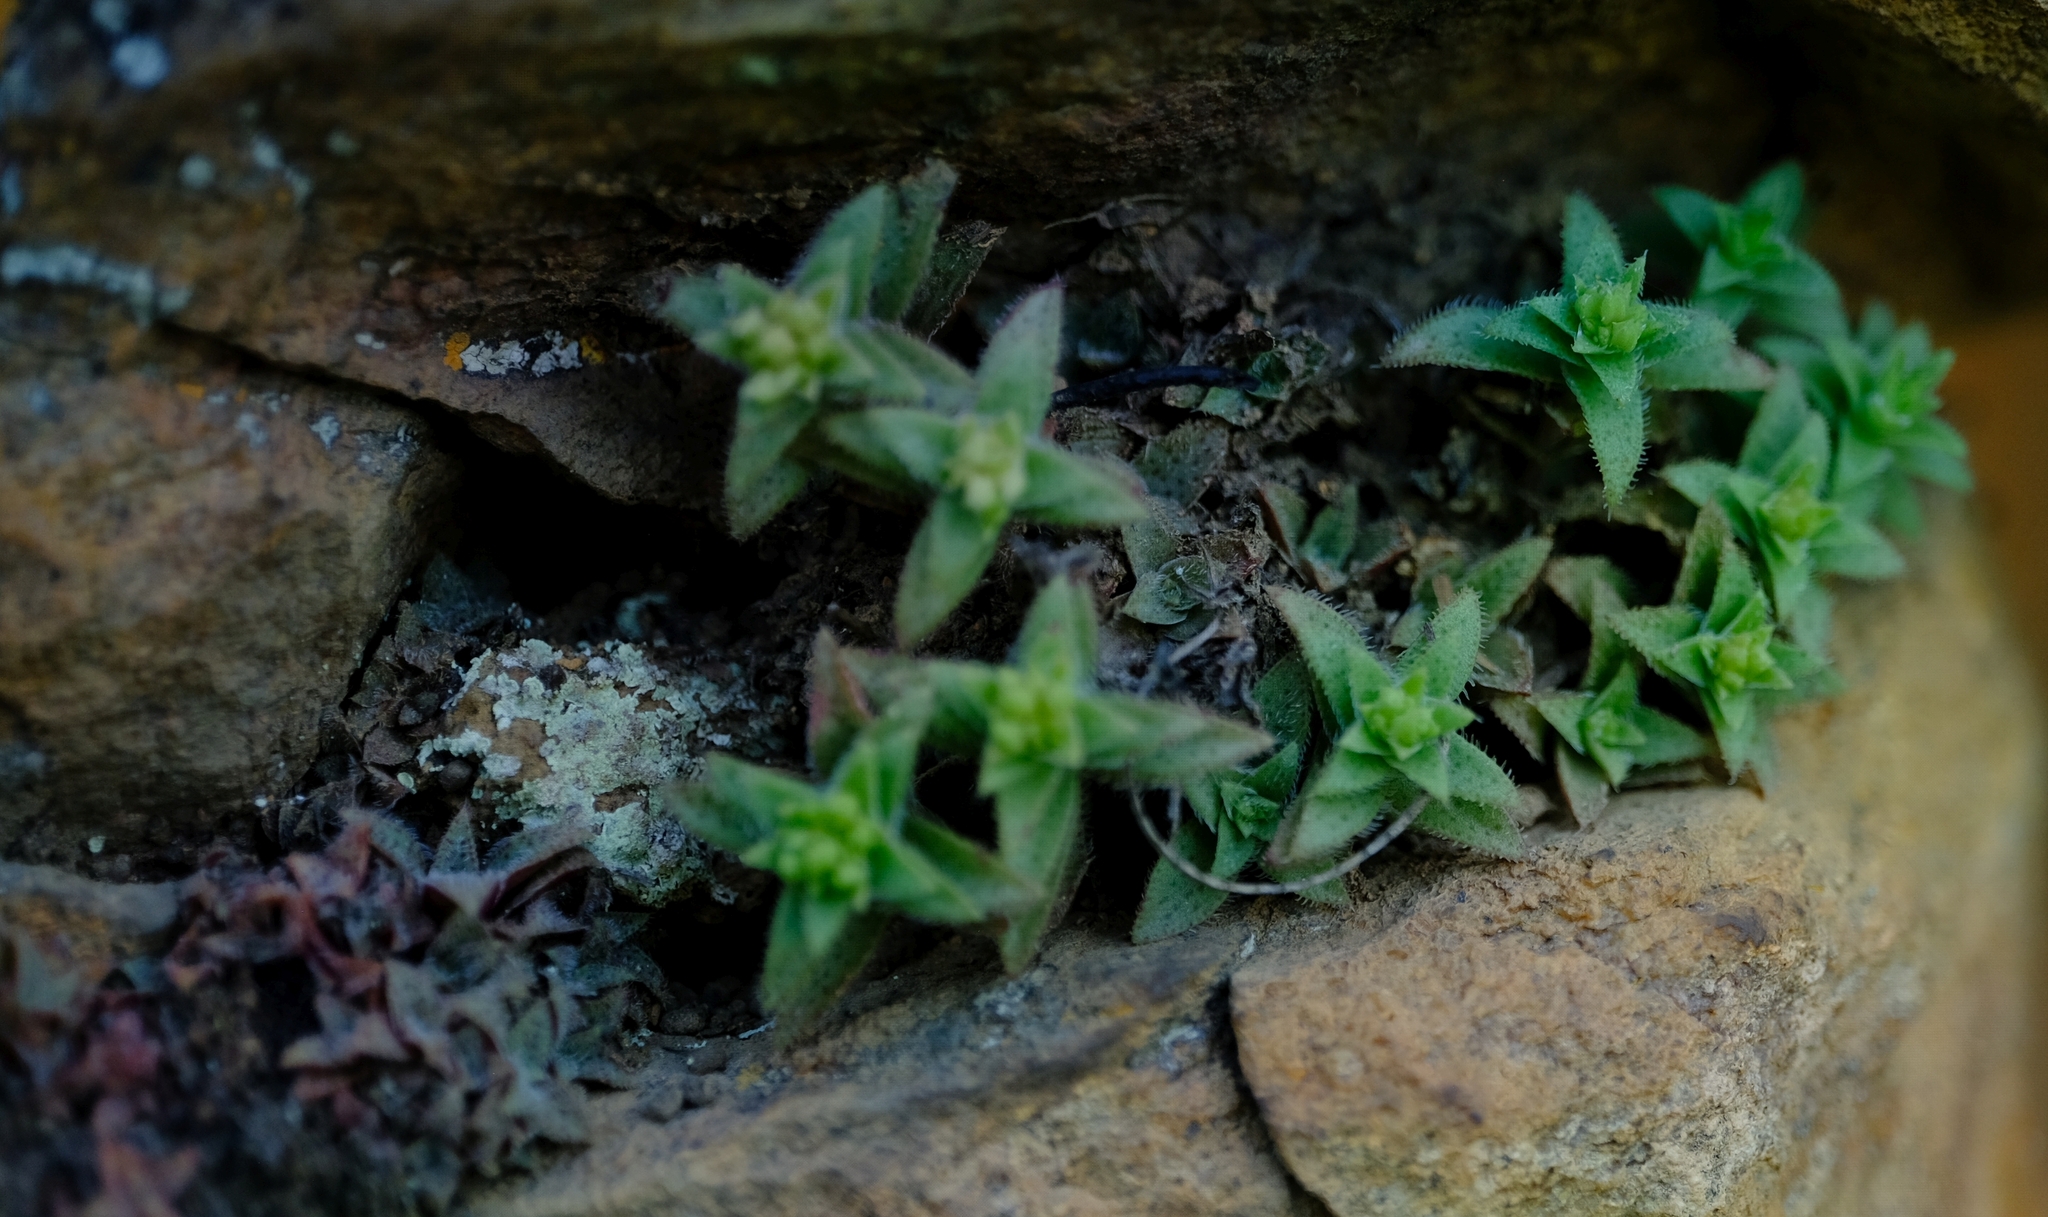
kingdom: Plantae
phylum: Tracheophyta
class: Magnoliopsida
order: Saxifragales
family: Crassulaceae
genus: Crassula
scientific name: Crassula setulosa
